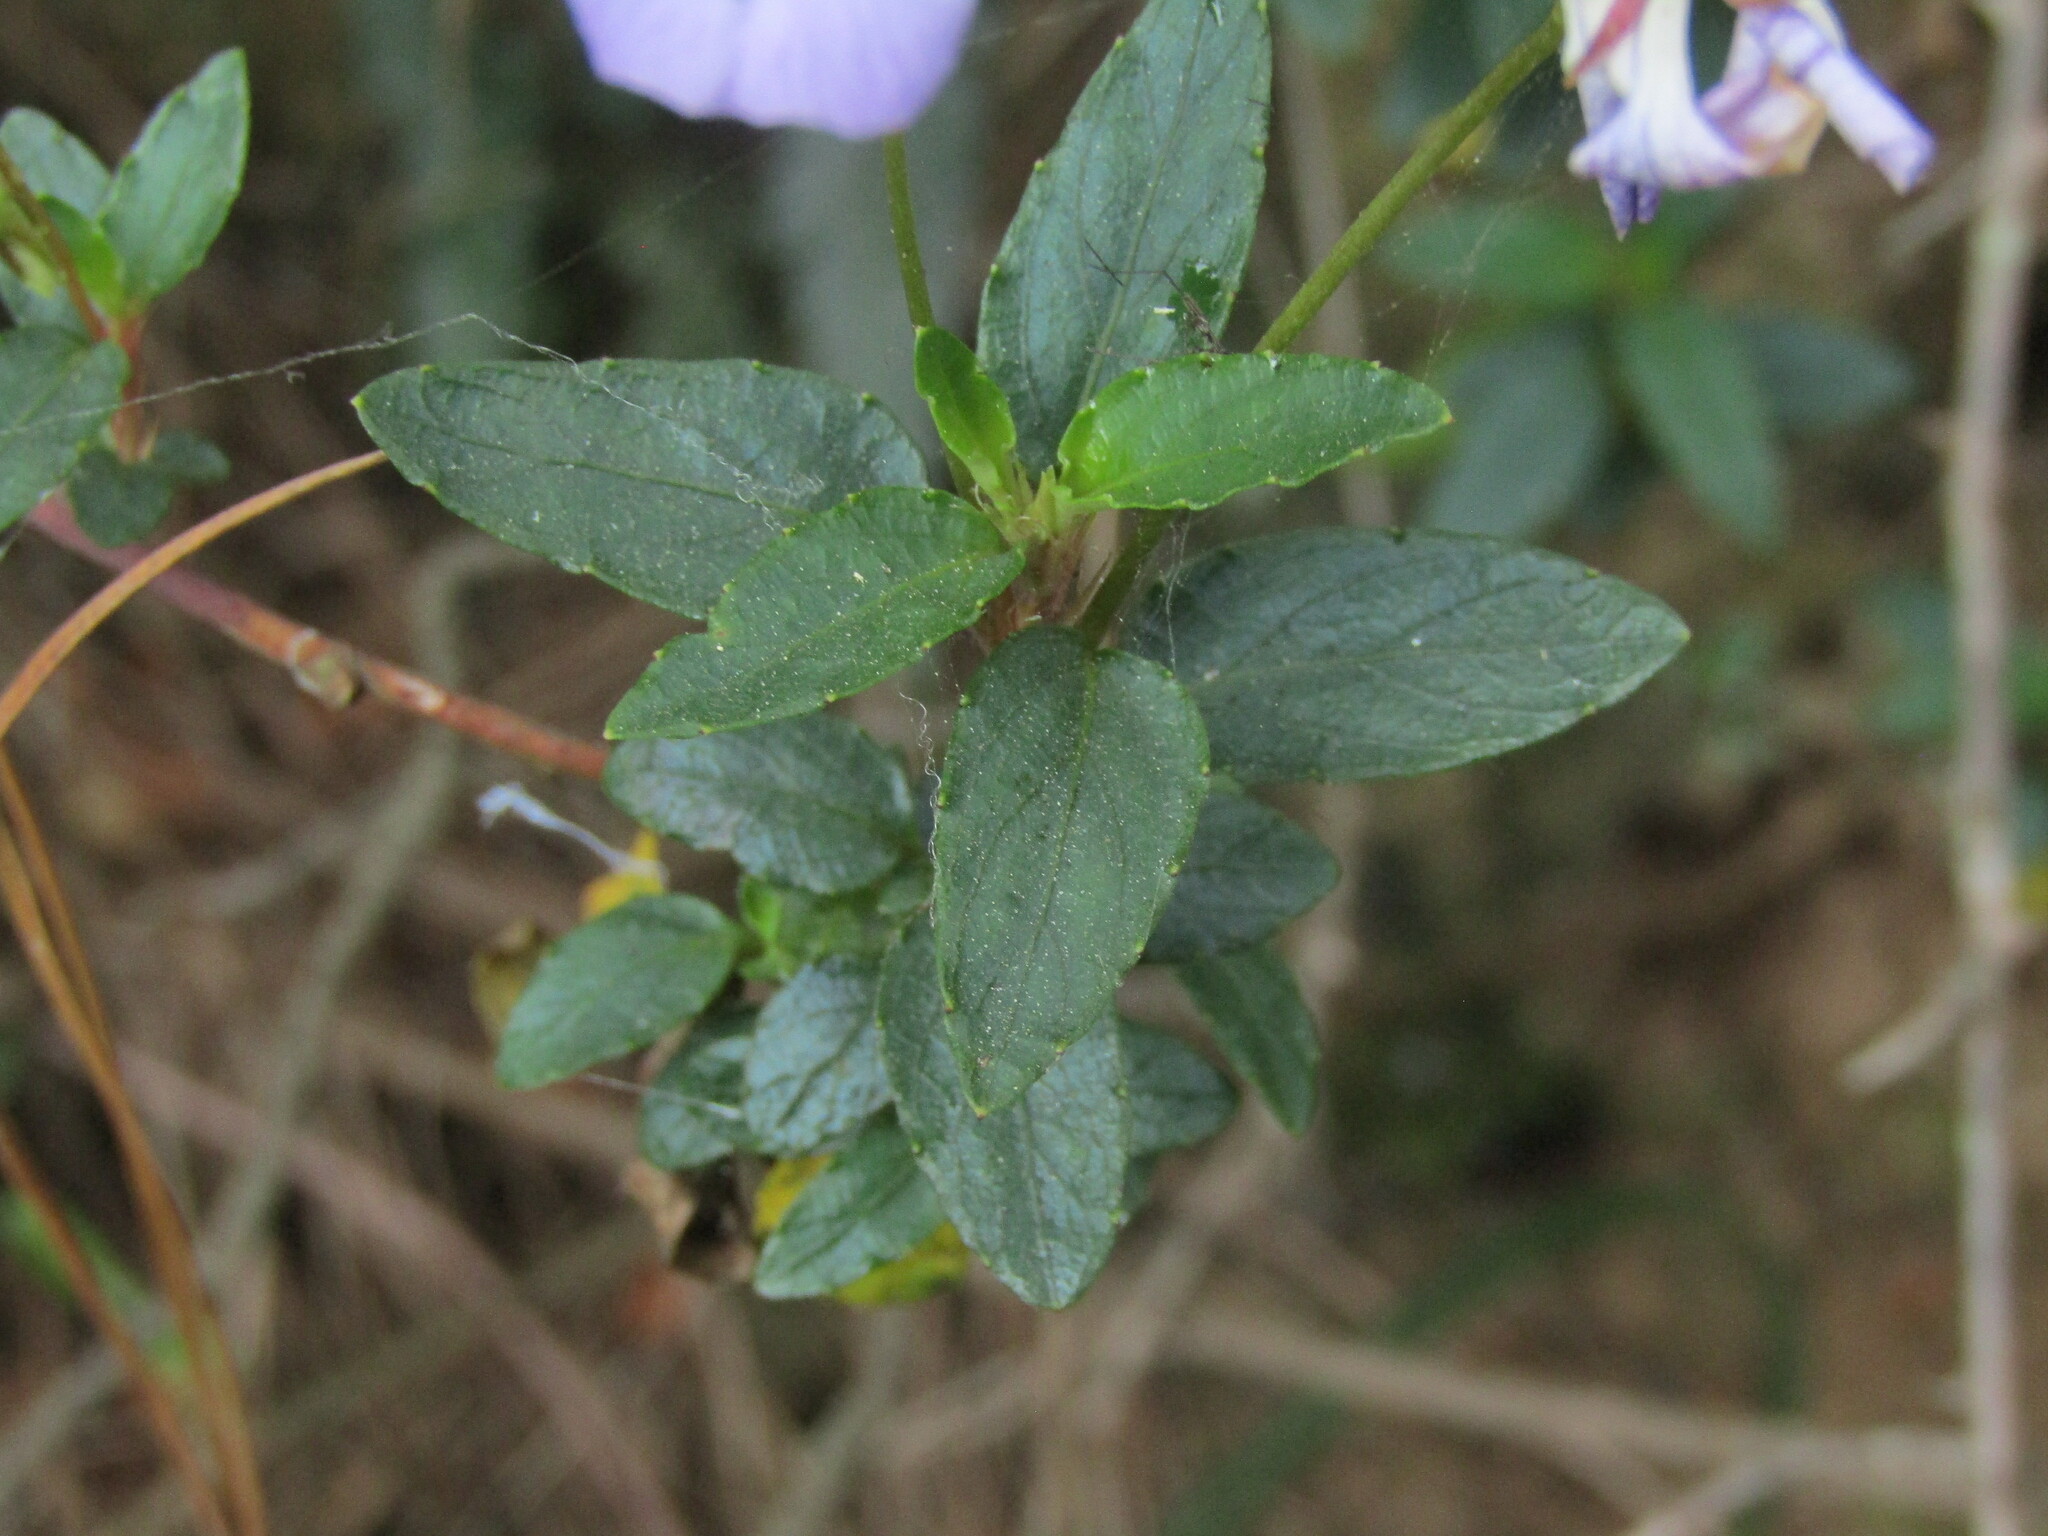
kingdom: Plantae
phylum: Tracheophyta
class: Magnoliopsida
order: Malpighiales
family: Violaceae
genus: Viola
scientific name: Viola portalesia
